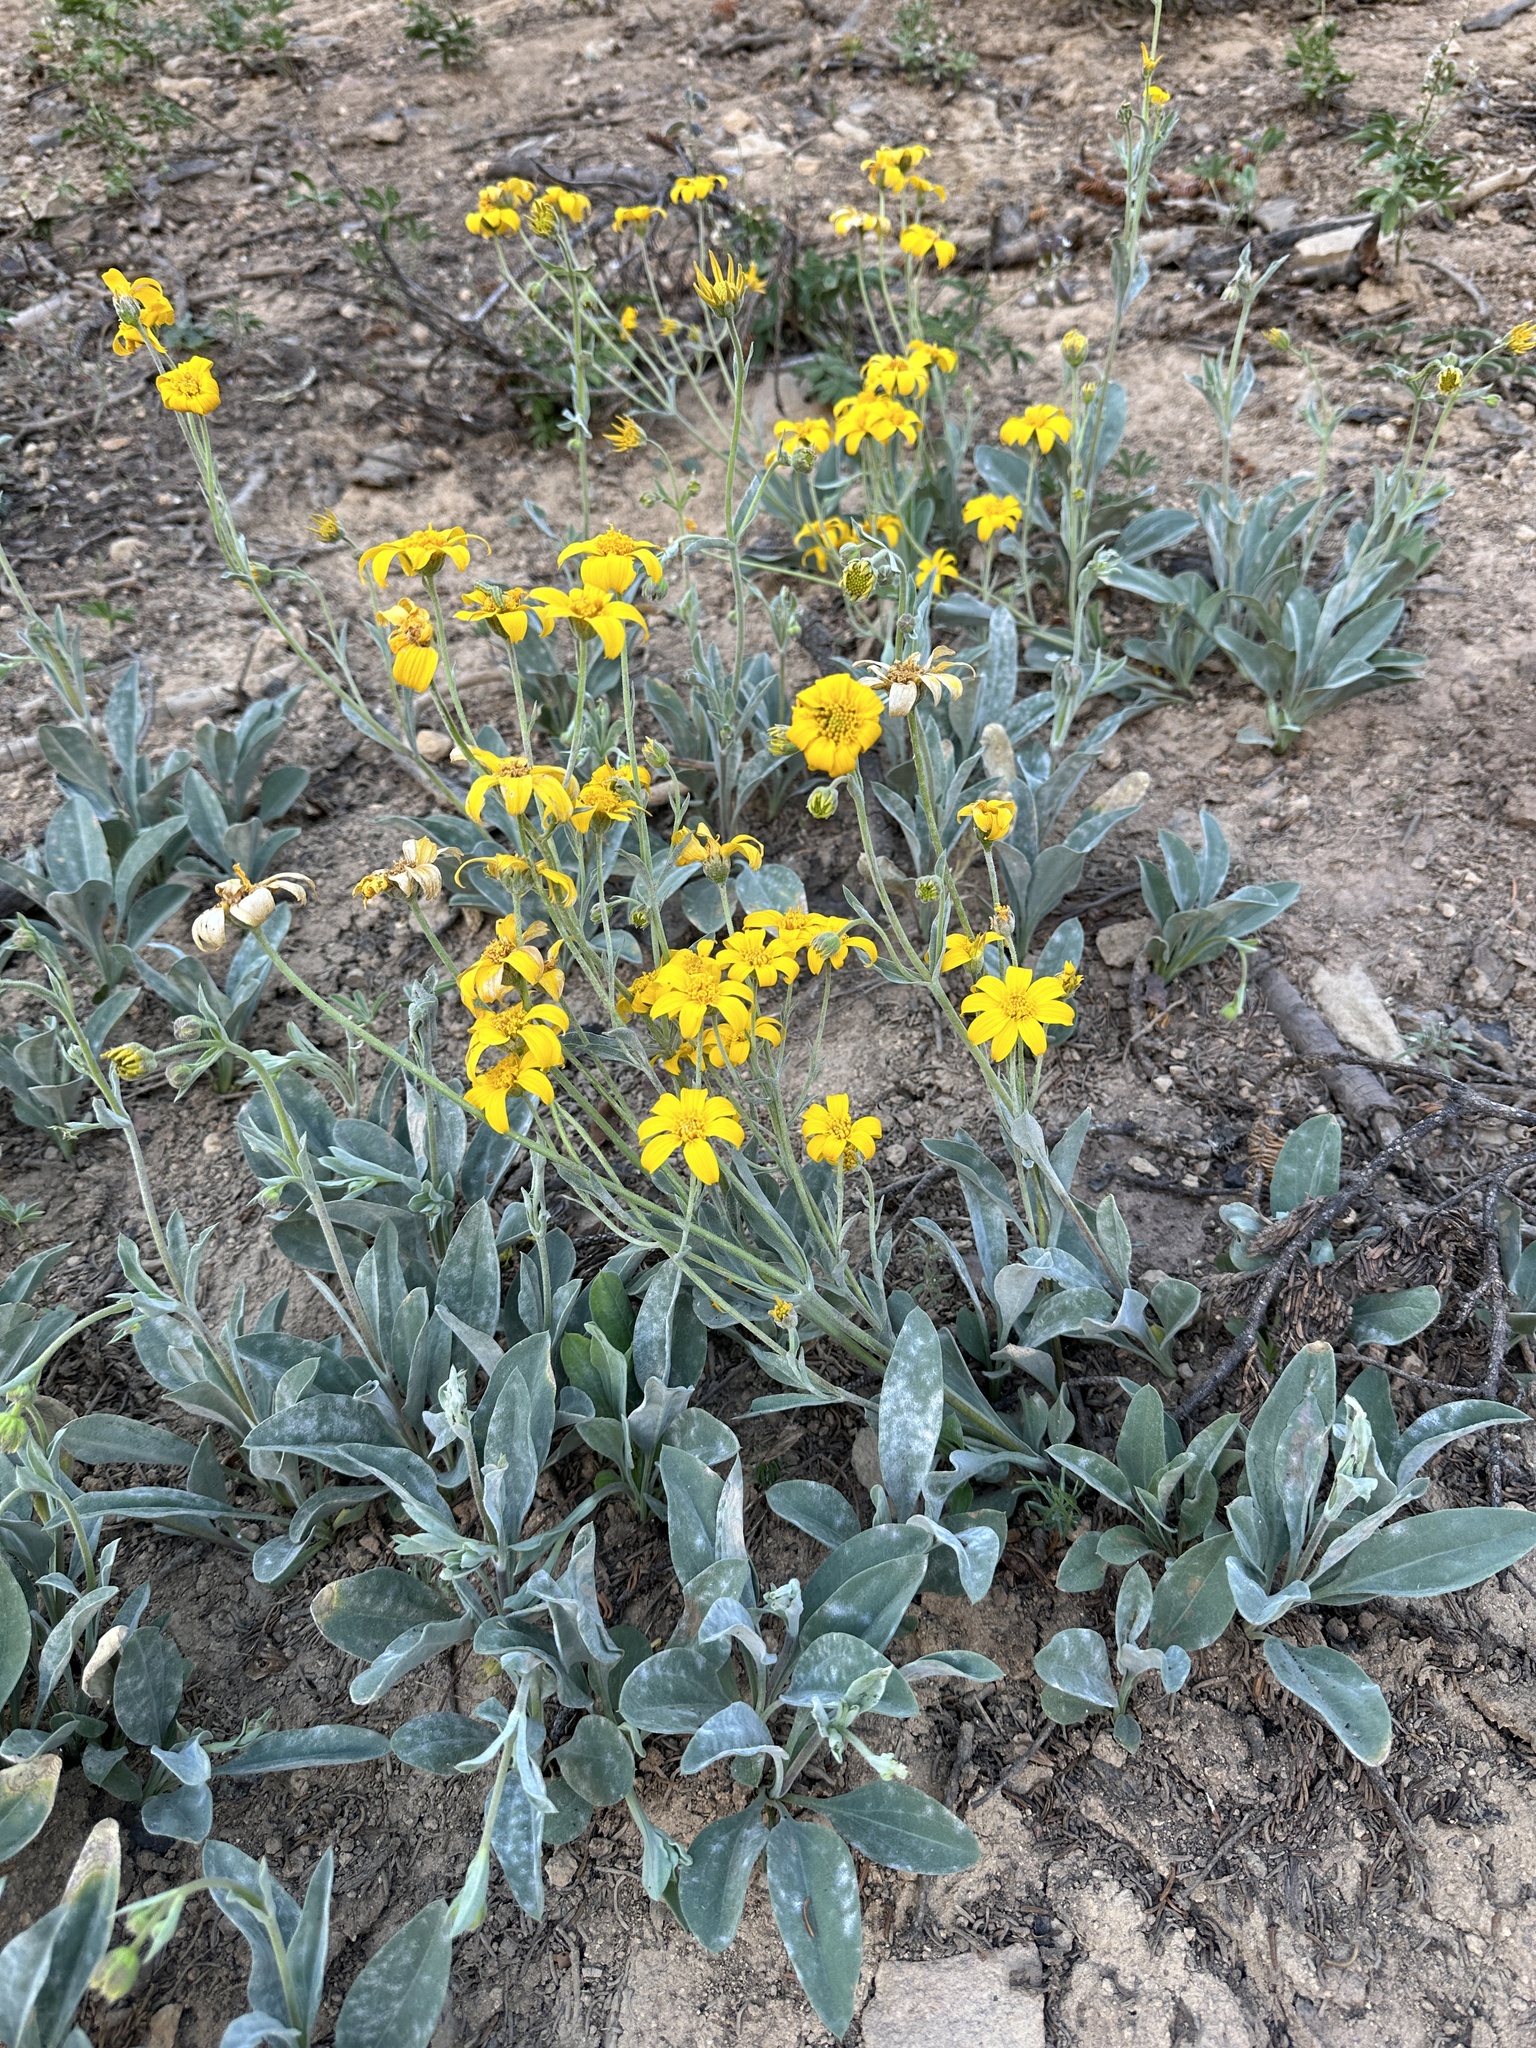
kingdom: Plantae
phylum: Tracheophyta
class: Magnoliopsida
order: Asterales
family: Asteraceae
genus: Arnica
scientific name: Arnica dealbata
